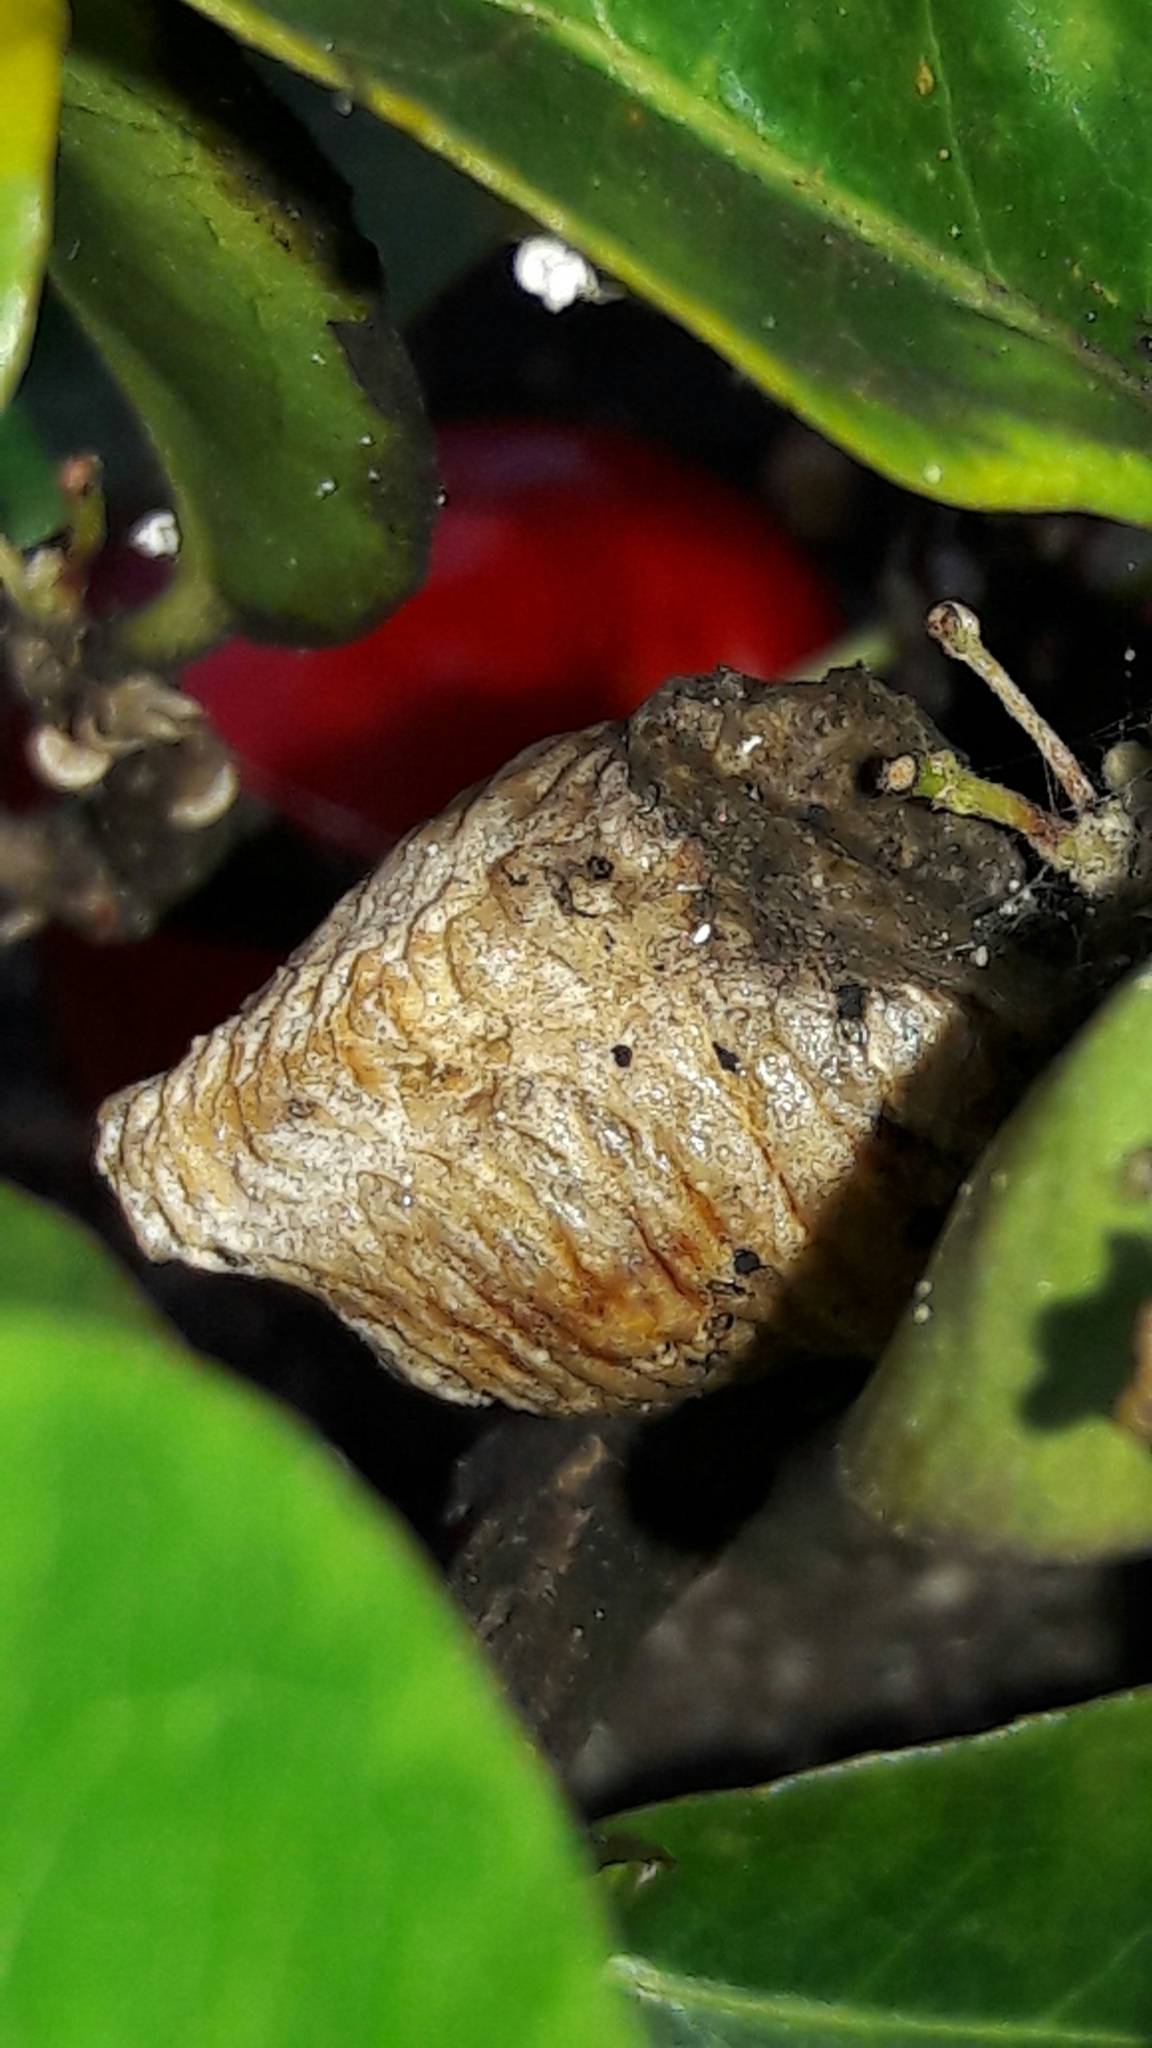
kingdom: Animalia
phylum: Arthropoda
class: Insecta
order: Mantodea
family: Mantidae
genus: Stagmatoptera
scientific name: Stagmatoptera
